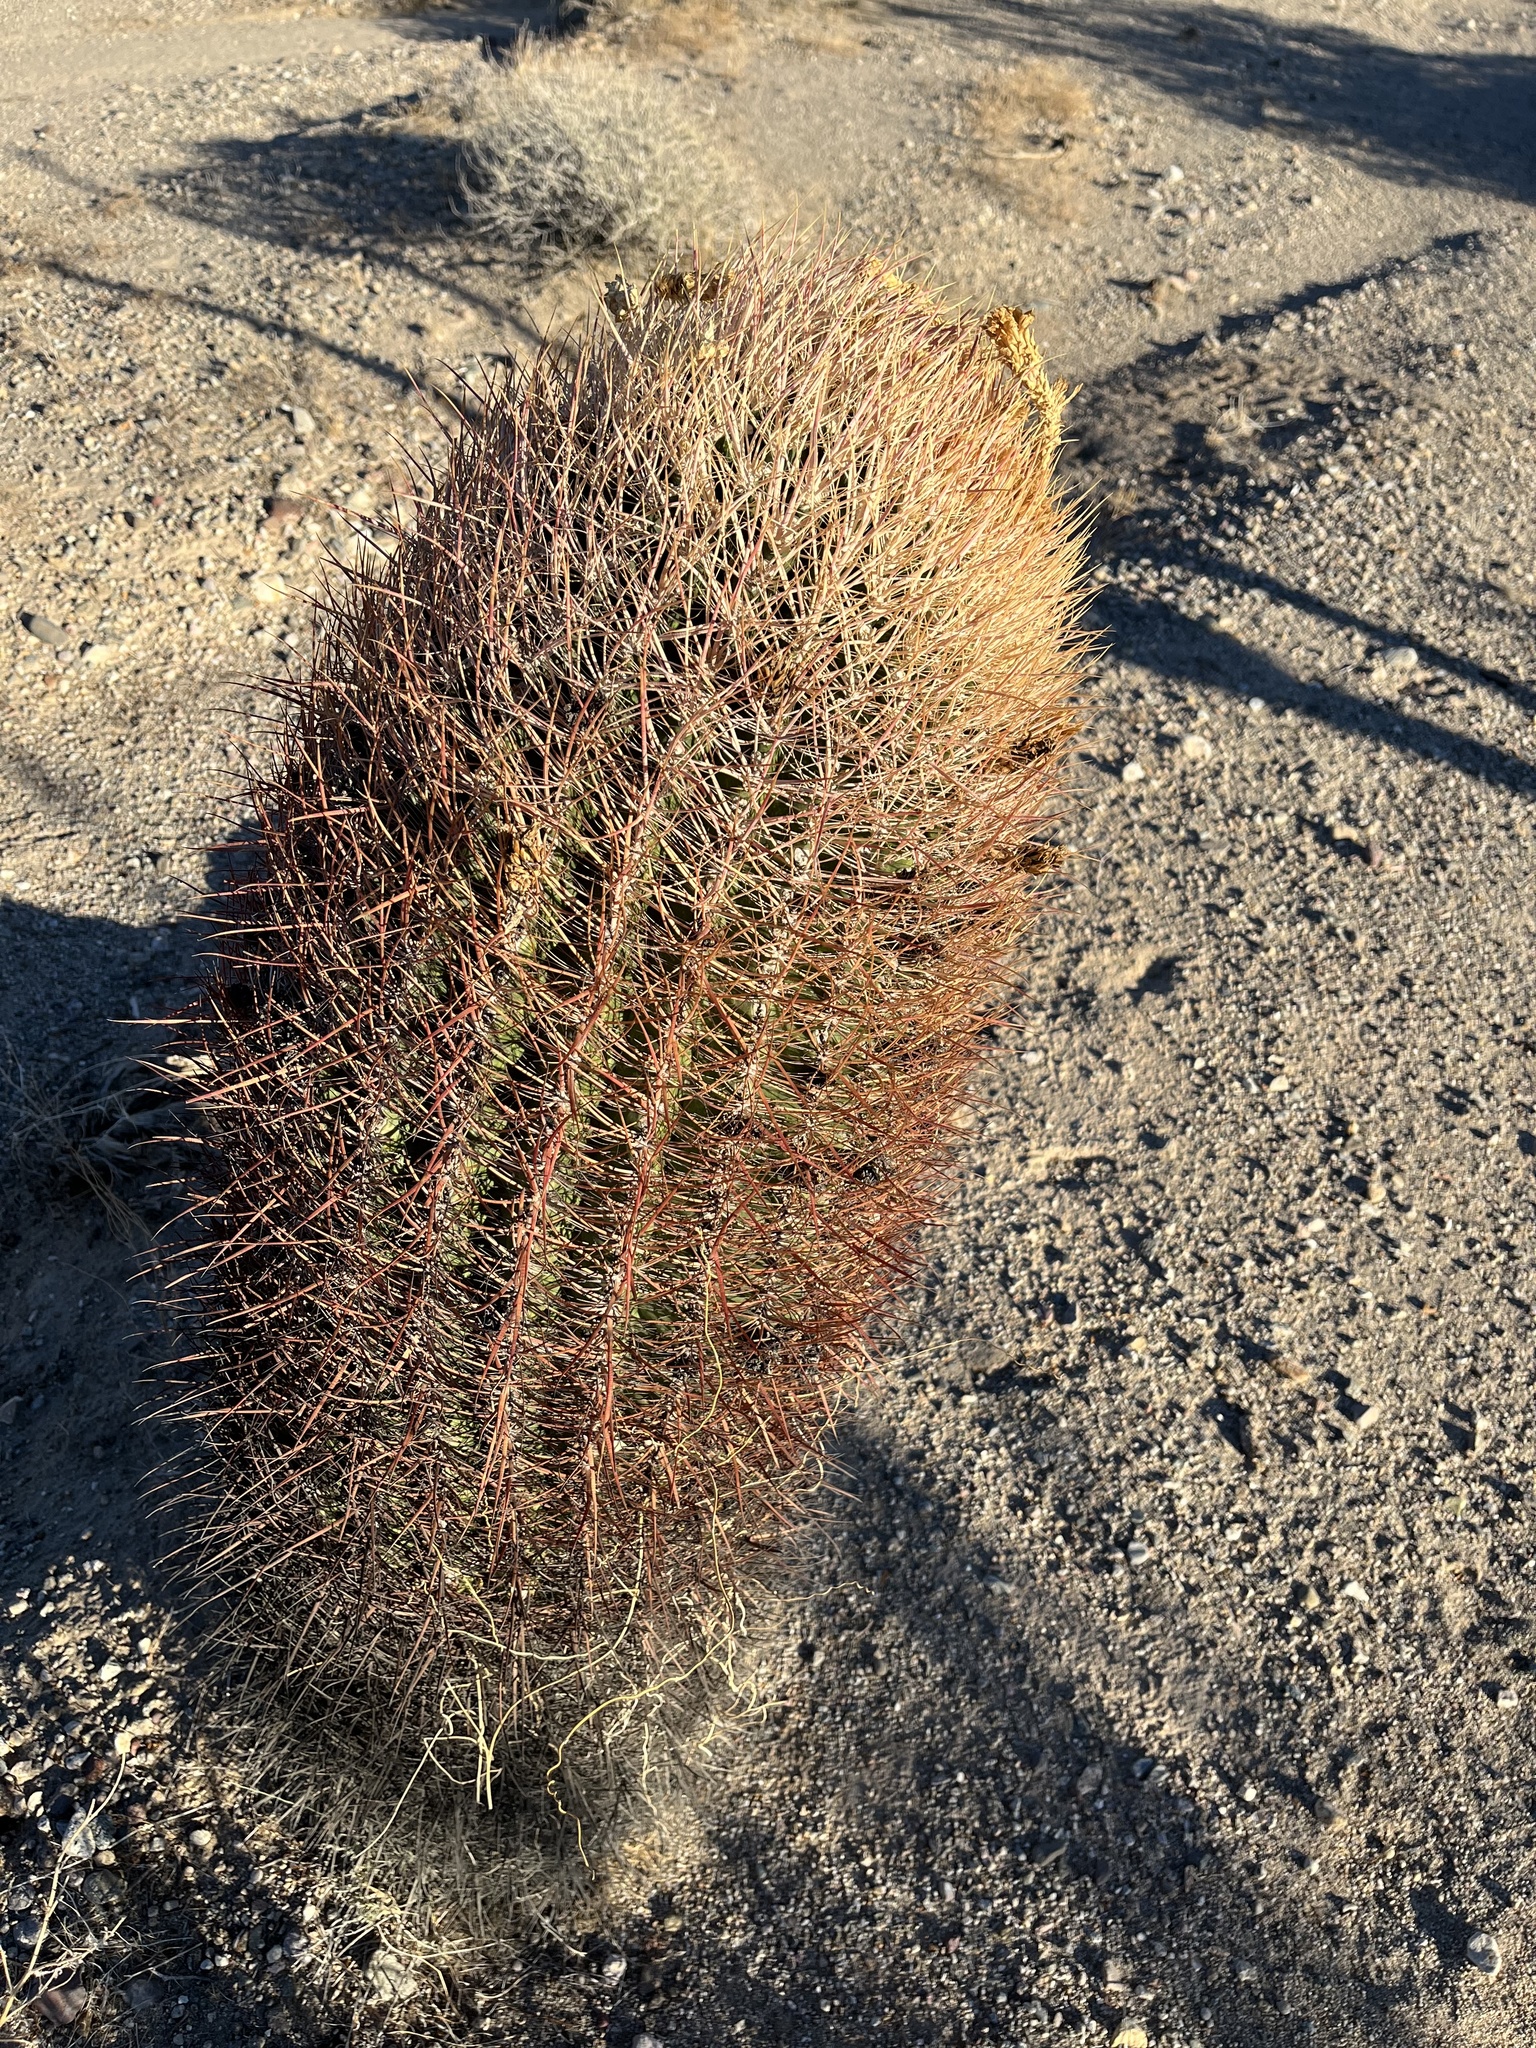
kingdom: Plantae
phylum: Tracheophyta
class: Magnoliopsida
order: Caryophyllales
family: Cactaceae
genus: Ferocactus
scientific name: Ferocactus cylindraceus
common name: California barrel cactus
